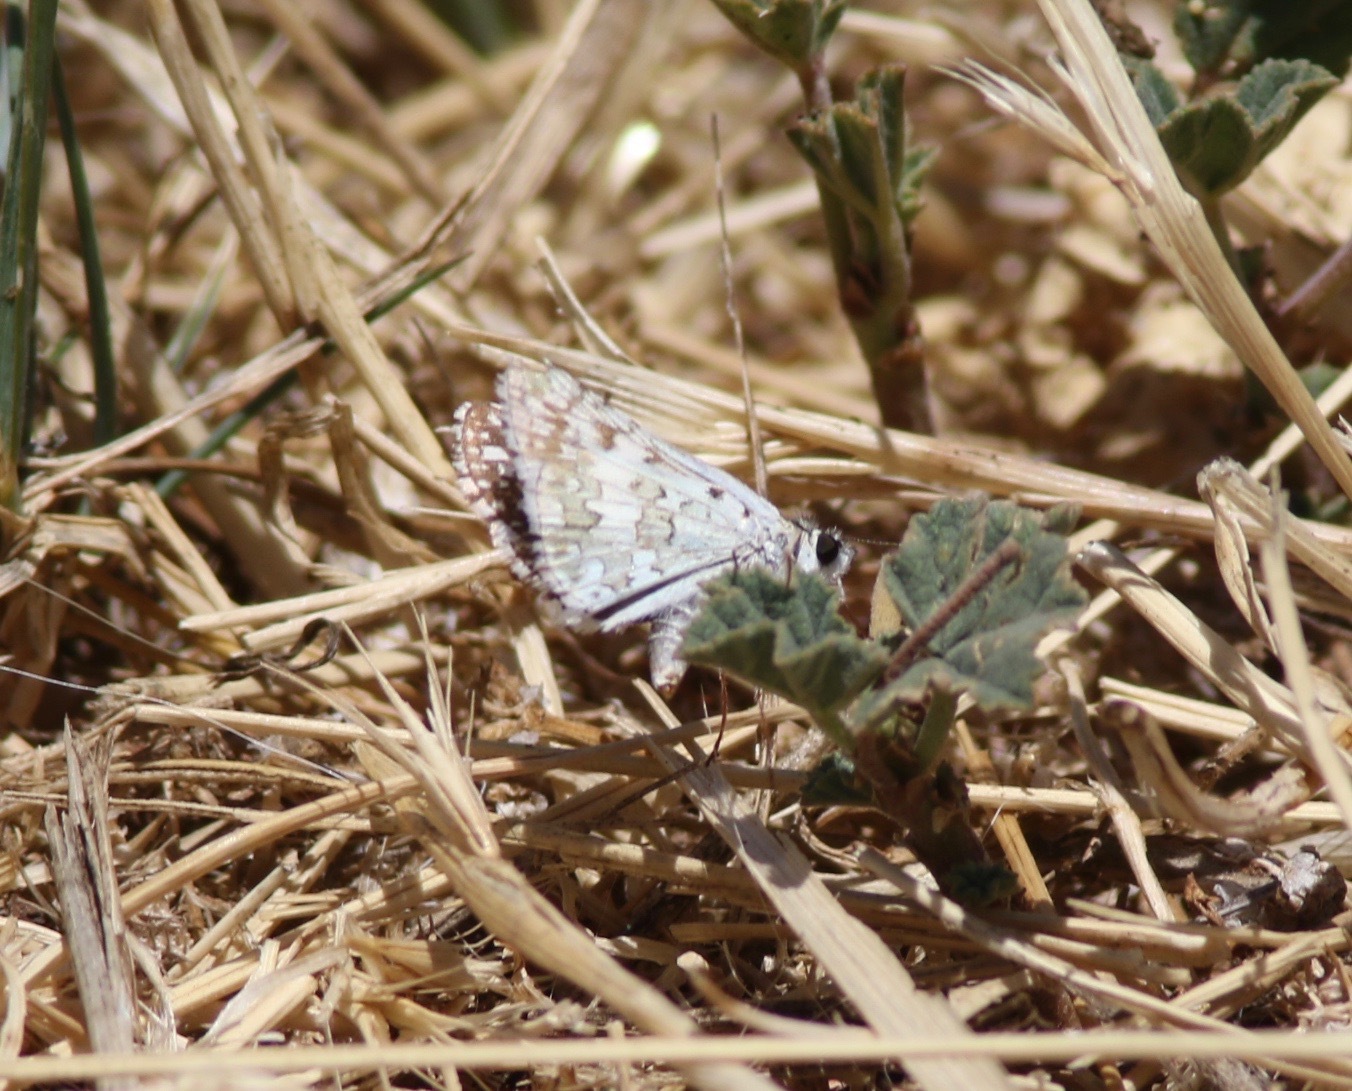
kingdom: Animalia
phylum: Arthropoda
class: Insecta
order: Lepidoptera
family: Hesperiidae
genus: Burnsius
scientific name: Burnsius communis
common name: Common checkered-skipper
